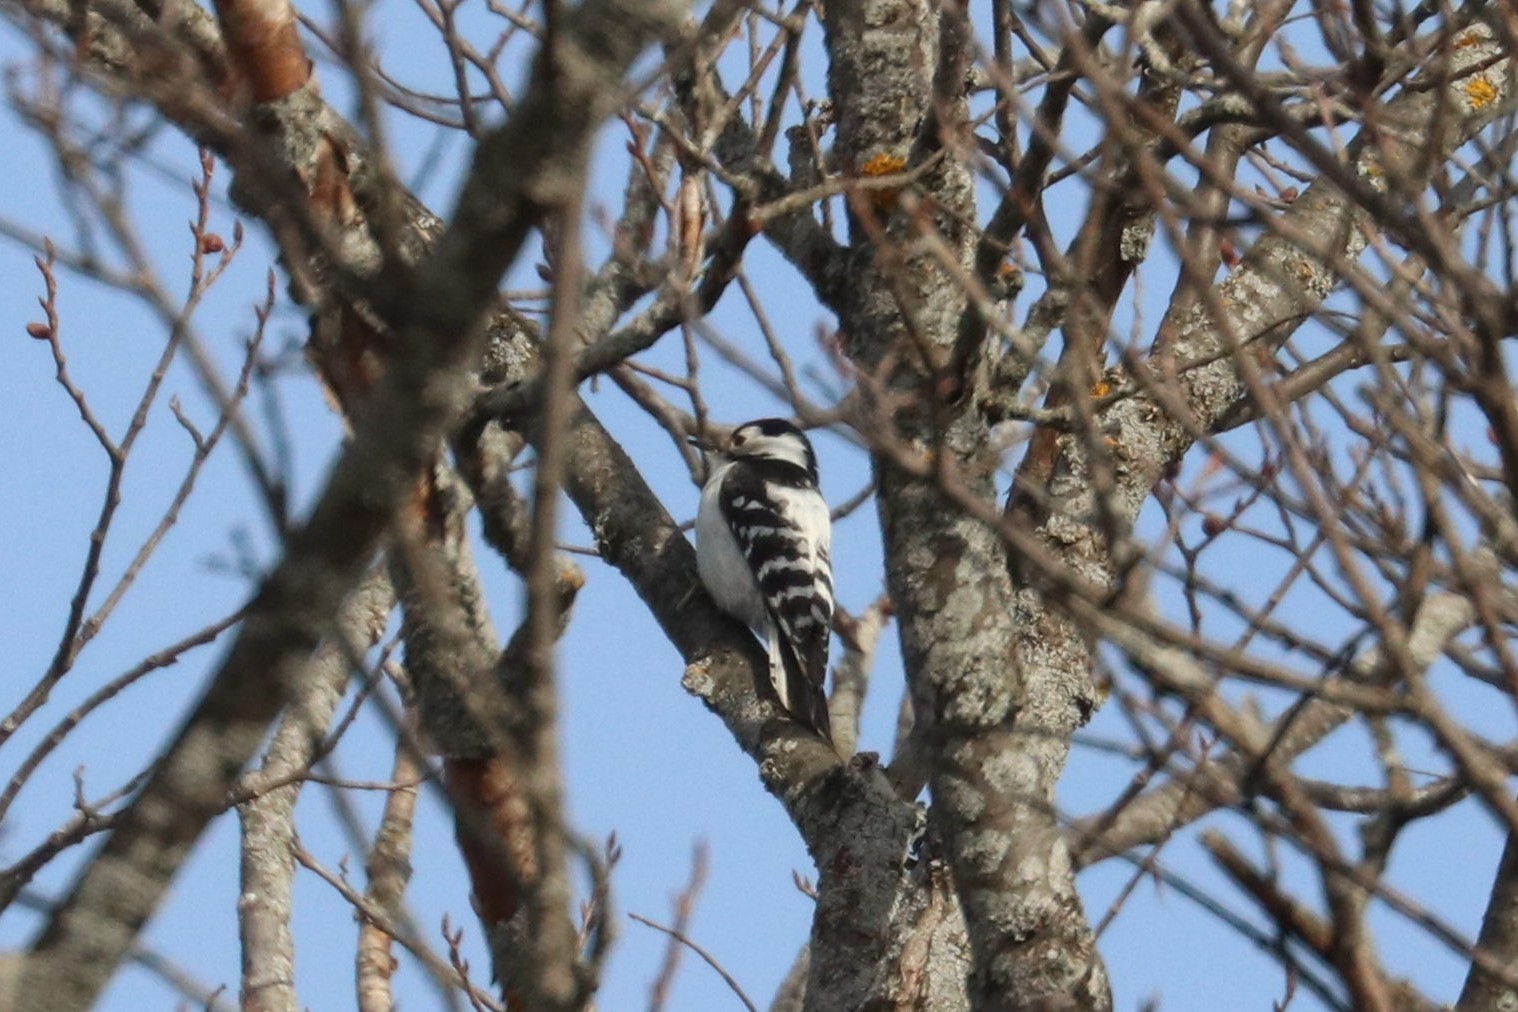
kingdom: Animalia
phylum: Chordata
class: Aves
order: Piciformes
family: Picidae
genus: Dryobates
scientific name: Dryobates minor
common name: Lesser spotted woodpecker
